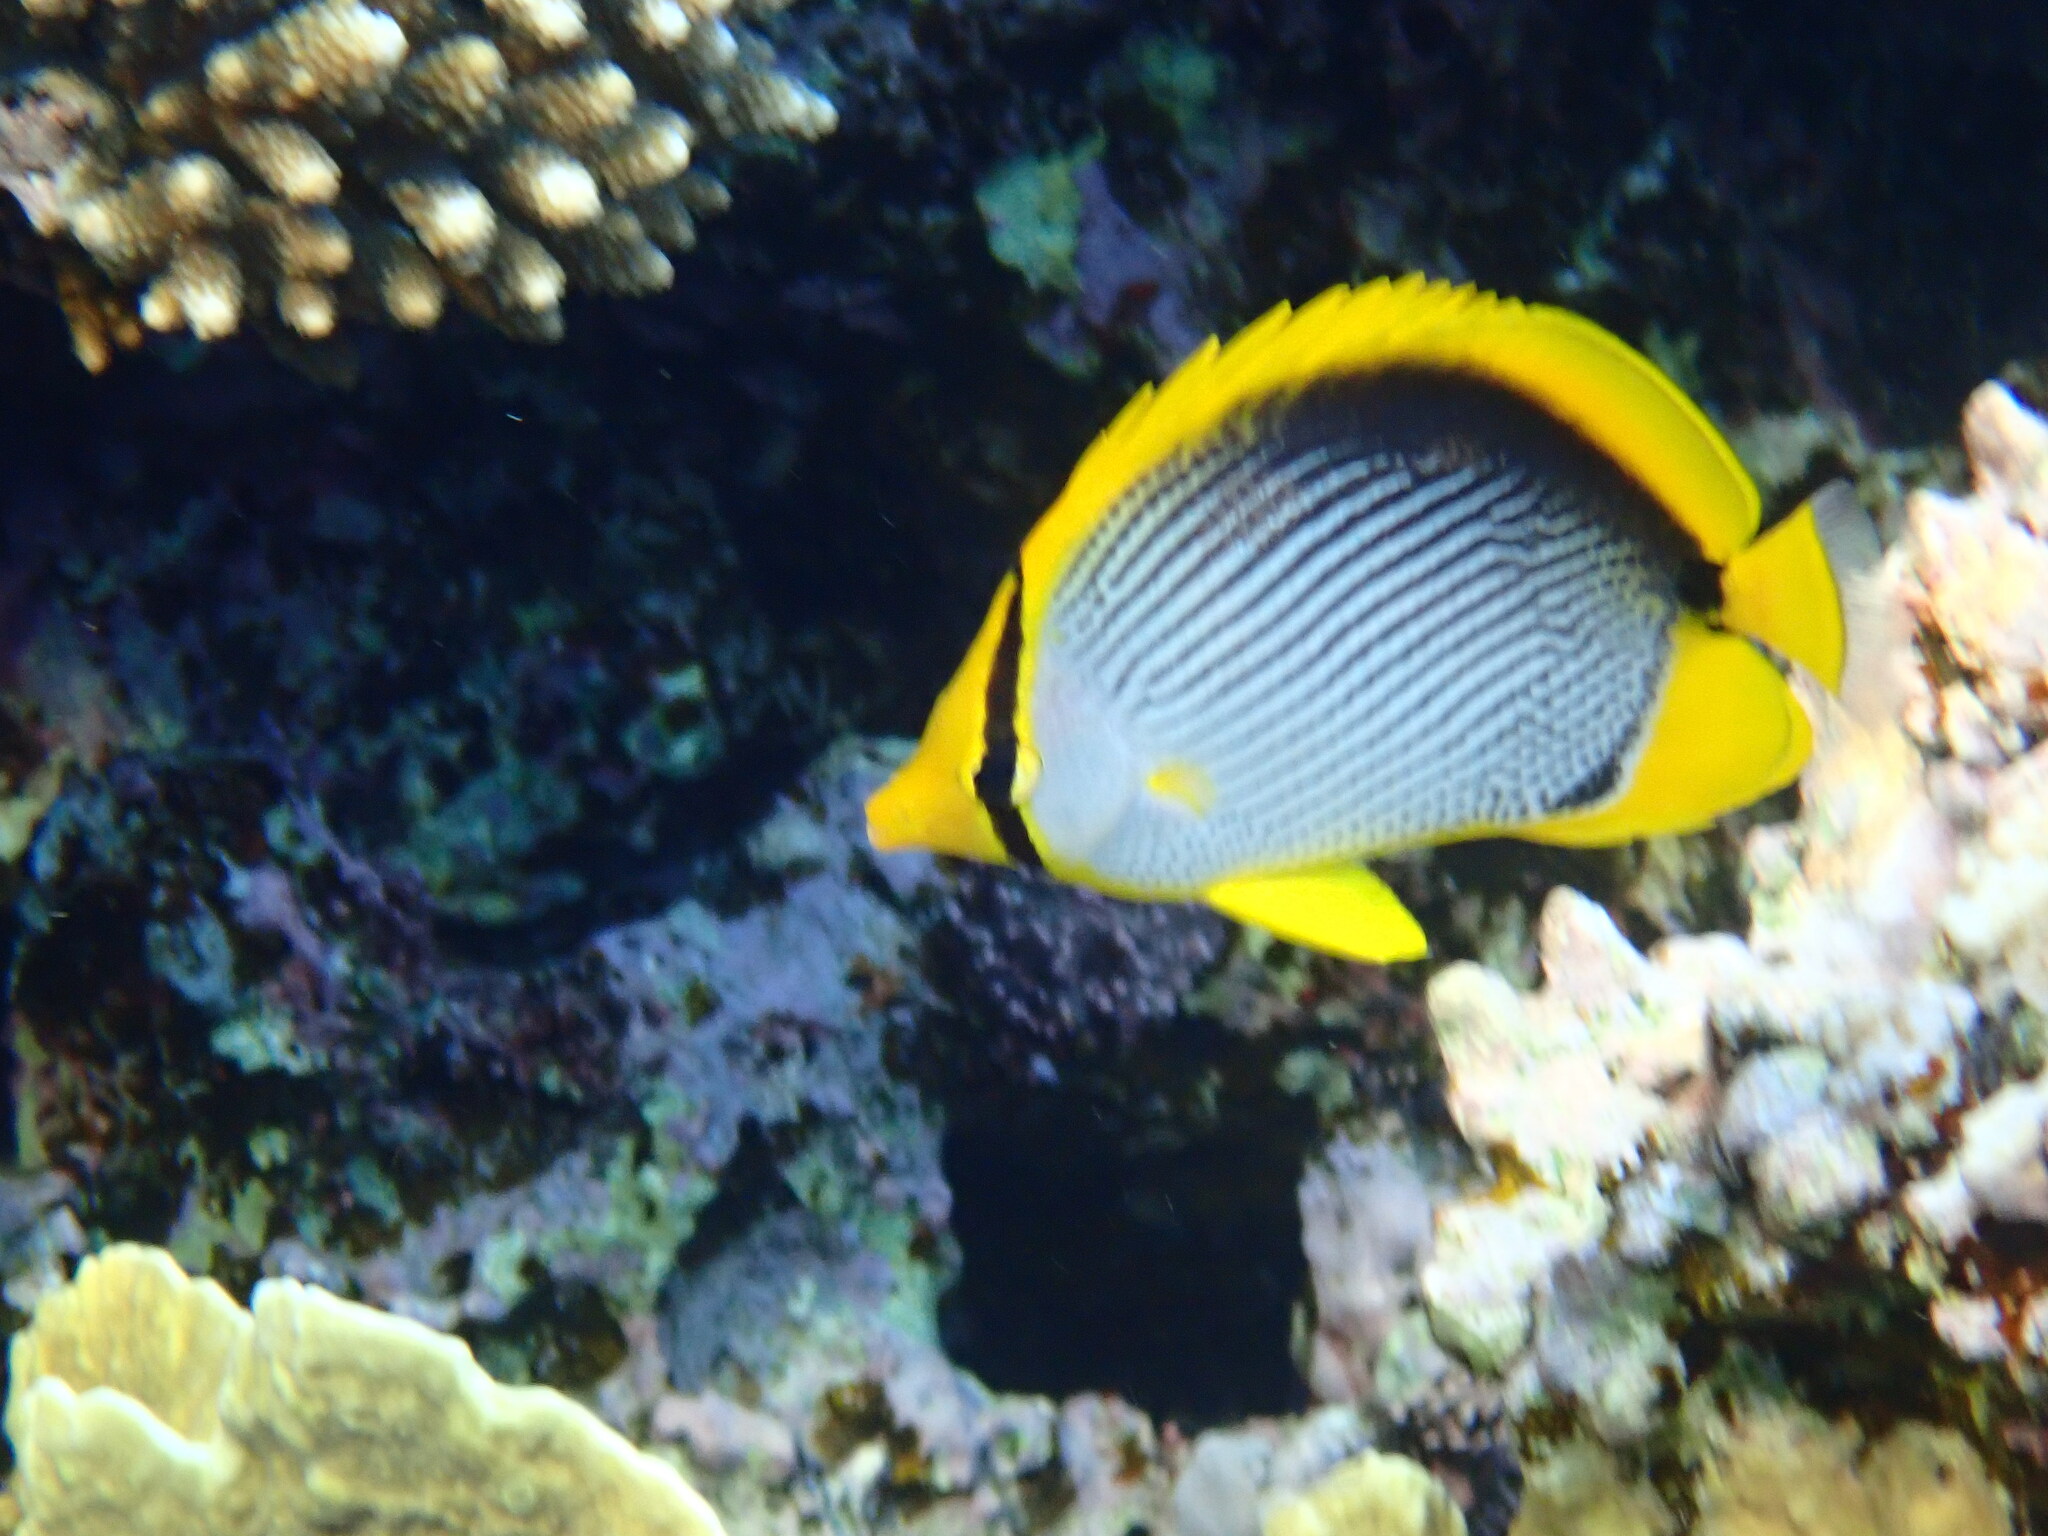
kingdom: Animalia
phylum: Chordata
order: Perciformes
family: Chaetodontidae
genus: Chaetodon
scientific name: Chaetodon melannotus
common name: Blackback butterflyfish
